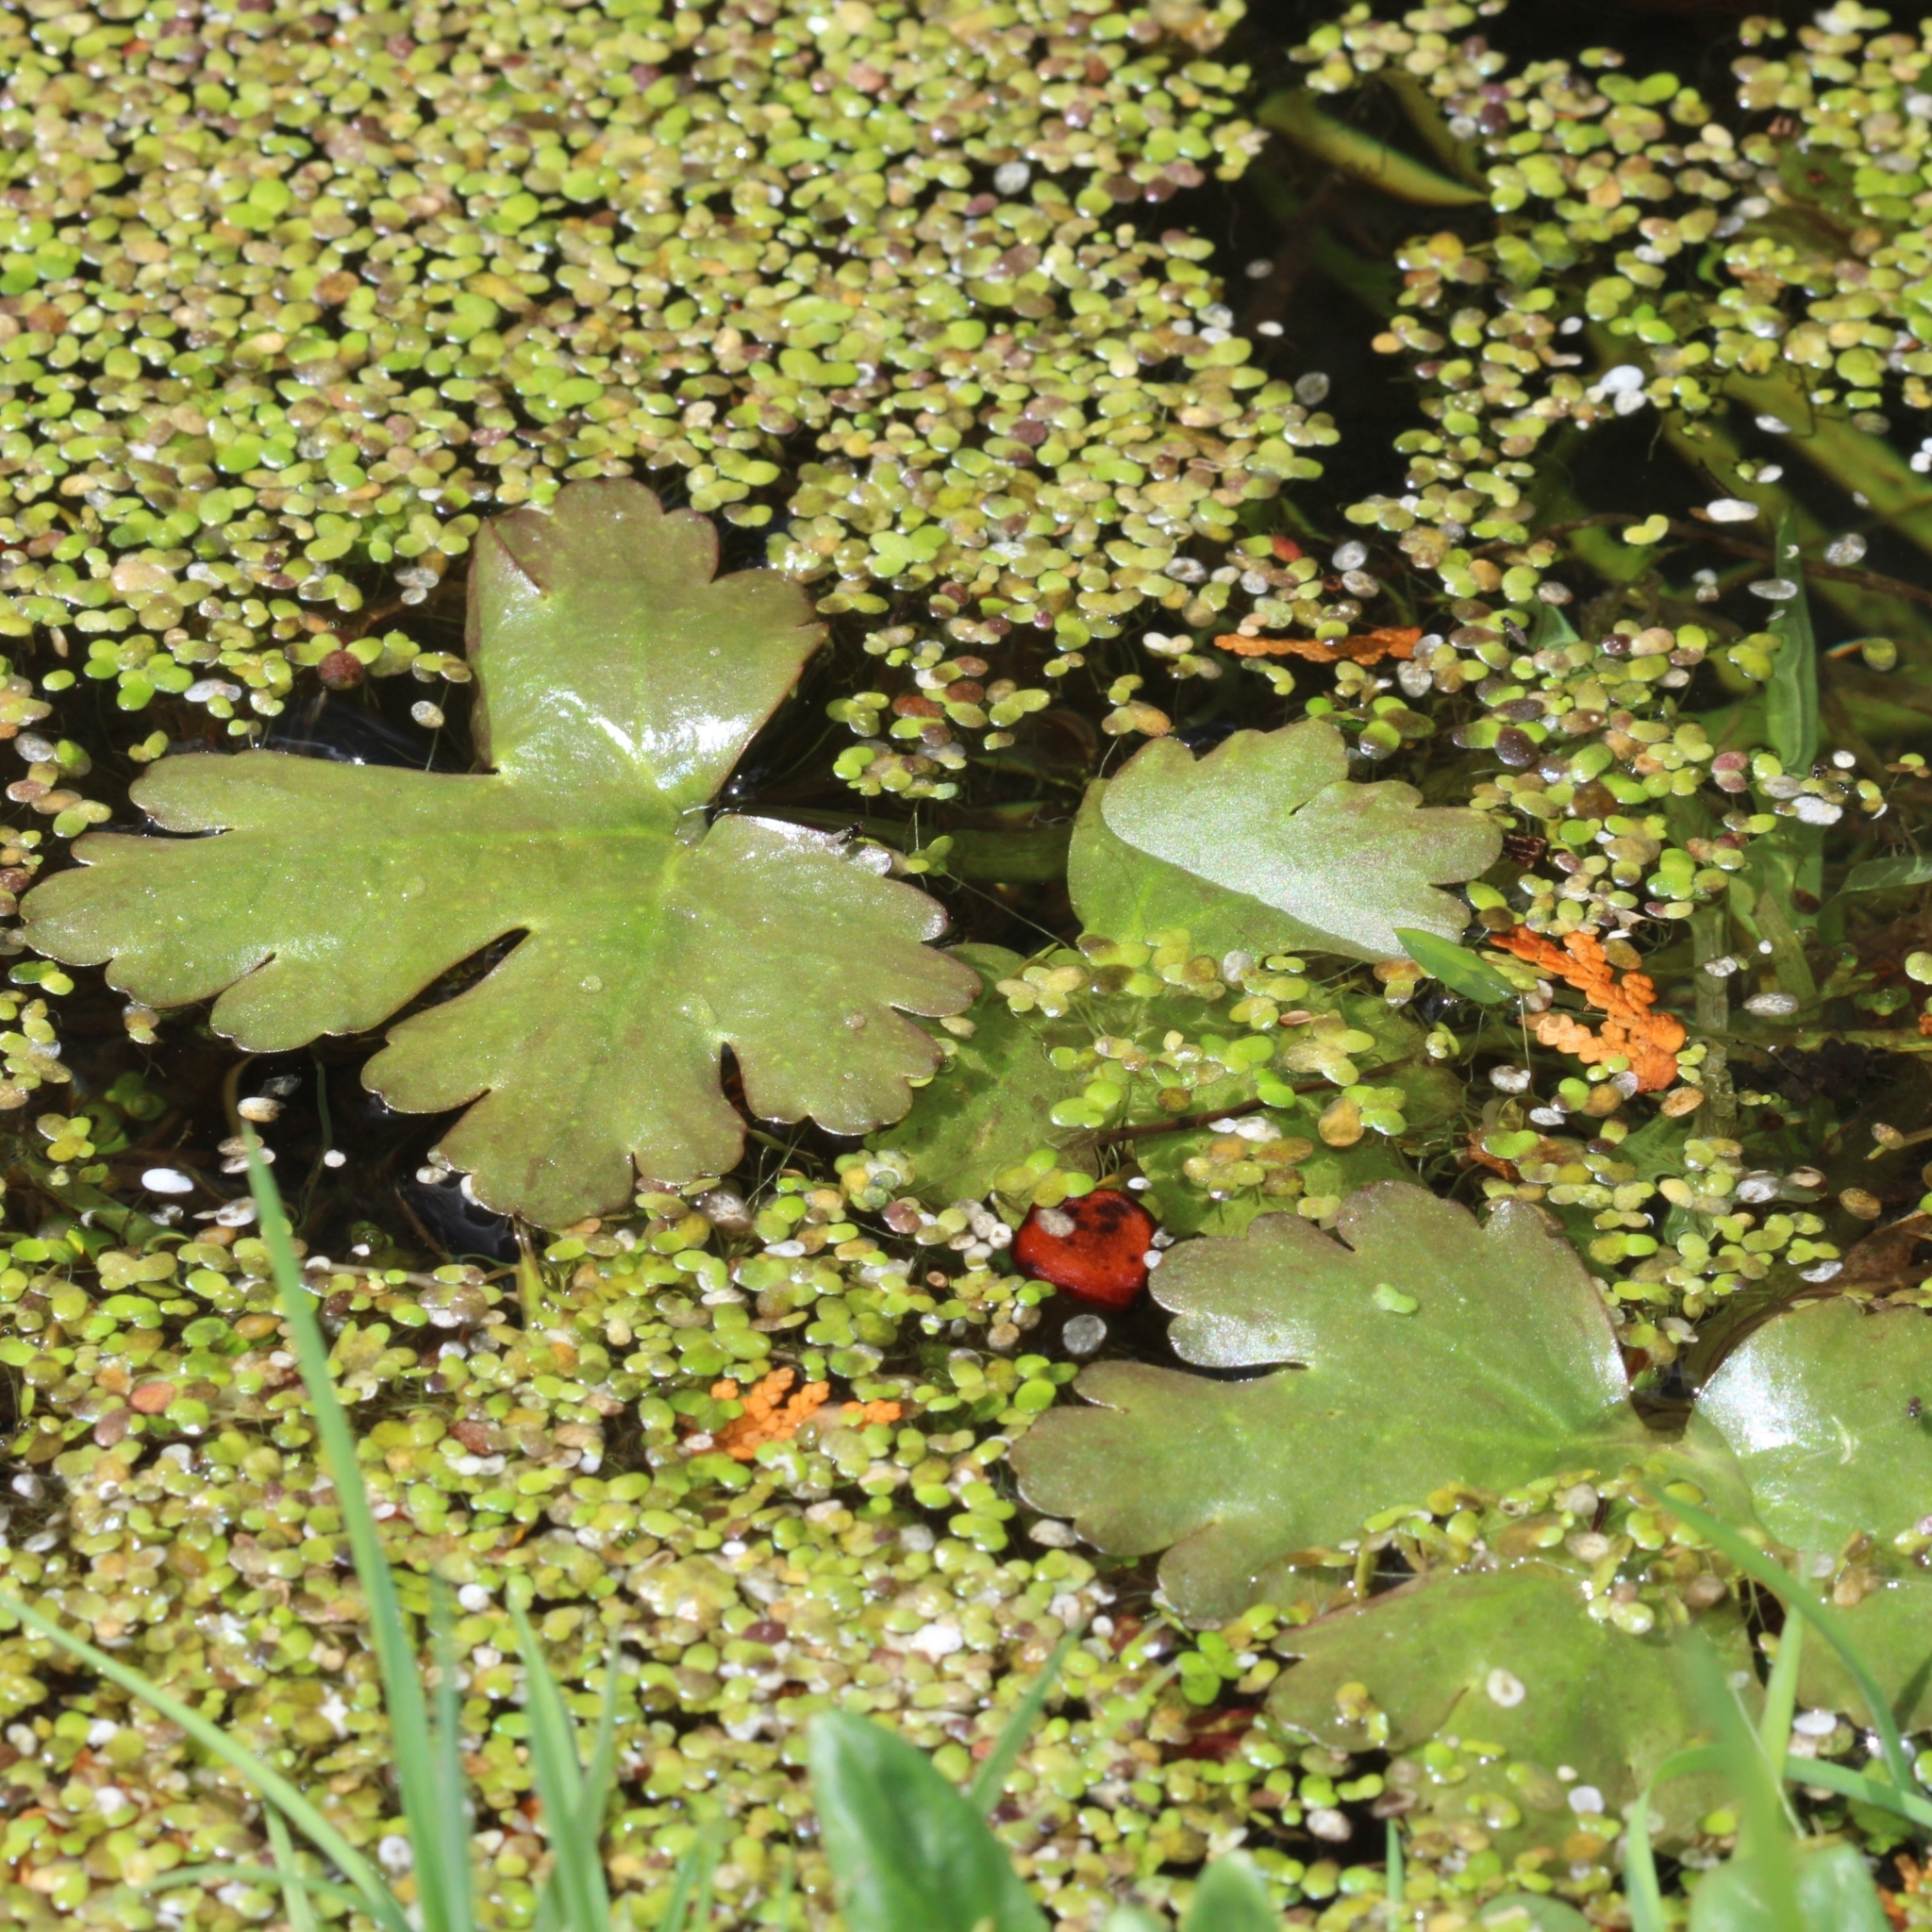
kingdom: Plantae
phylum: Tracheophyta
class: Magnoliopsida
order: Ranunculales
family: Ranunculaceae
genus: Ranunculus
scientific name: Ranunculus sceleratus
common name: Celery-leaved buttercup
